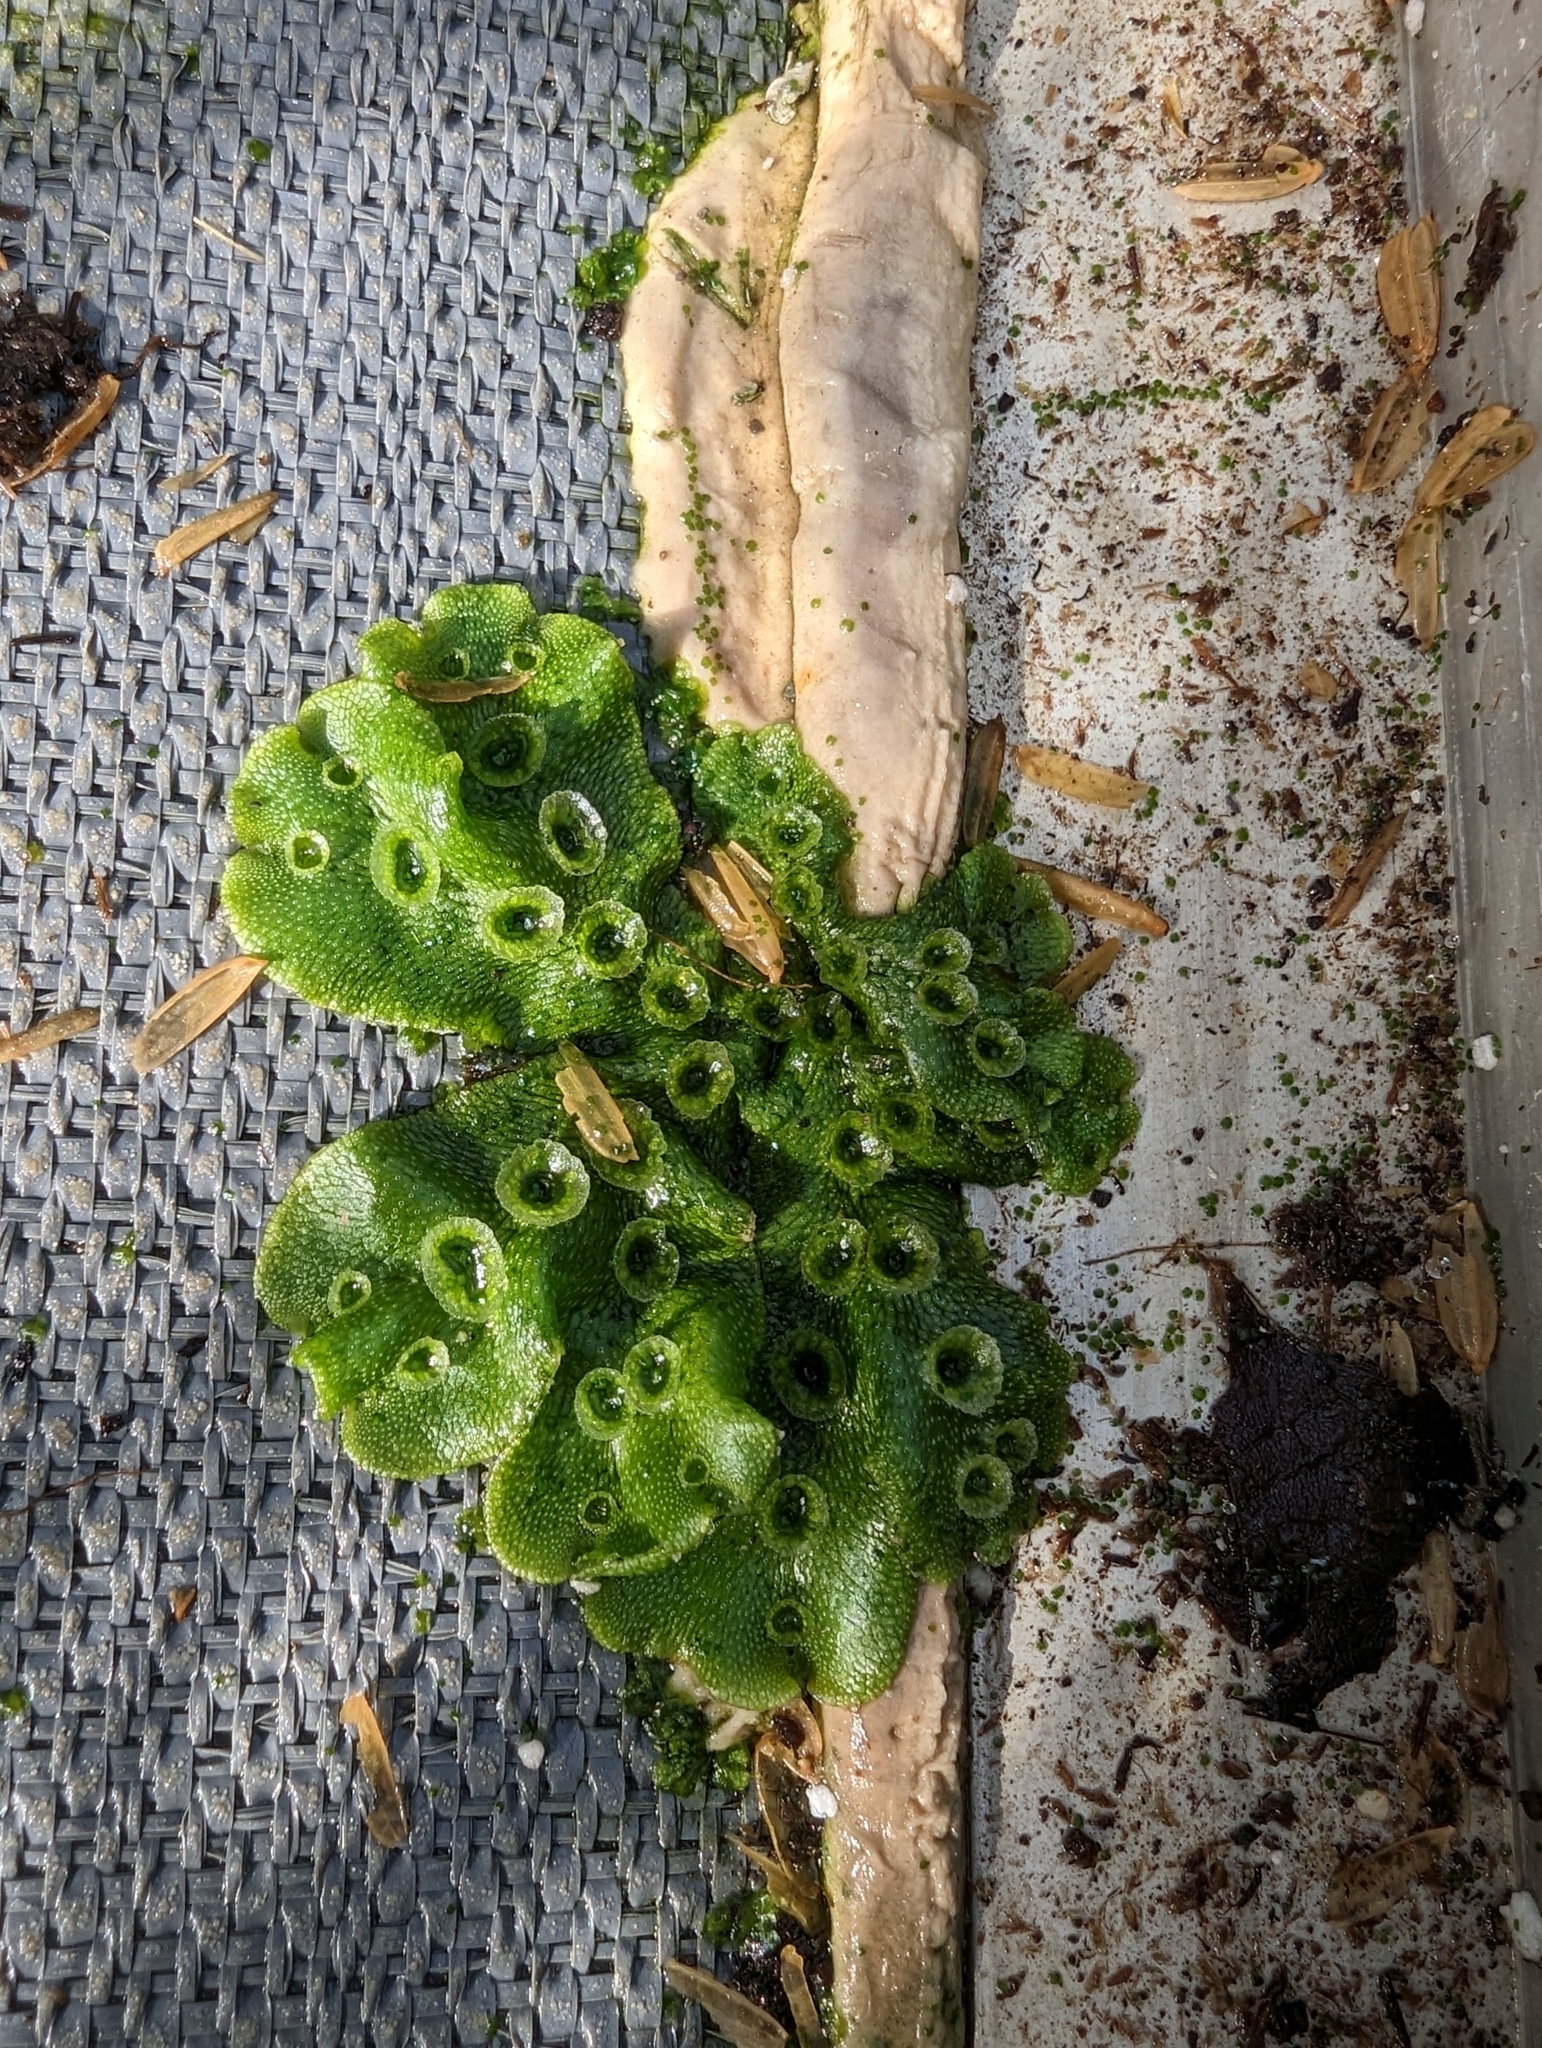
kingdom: Plantae
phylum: Marchantiophyta
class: Marchantiopsida
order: Marchantiales
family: Marchantiaceae
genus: Marchantia
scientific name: Marchantia polymorpha
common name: Common liverwort
